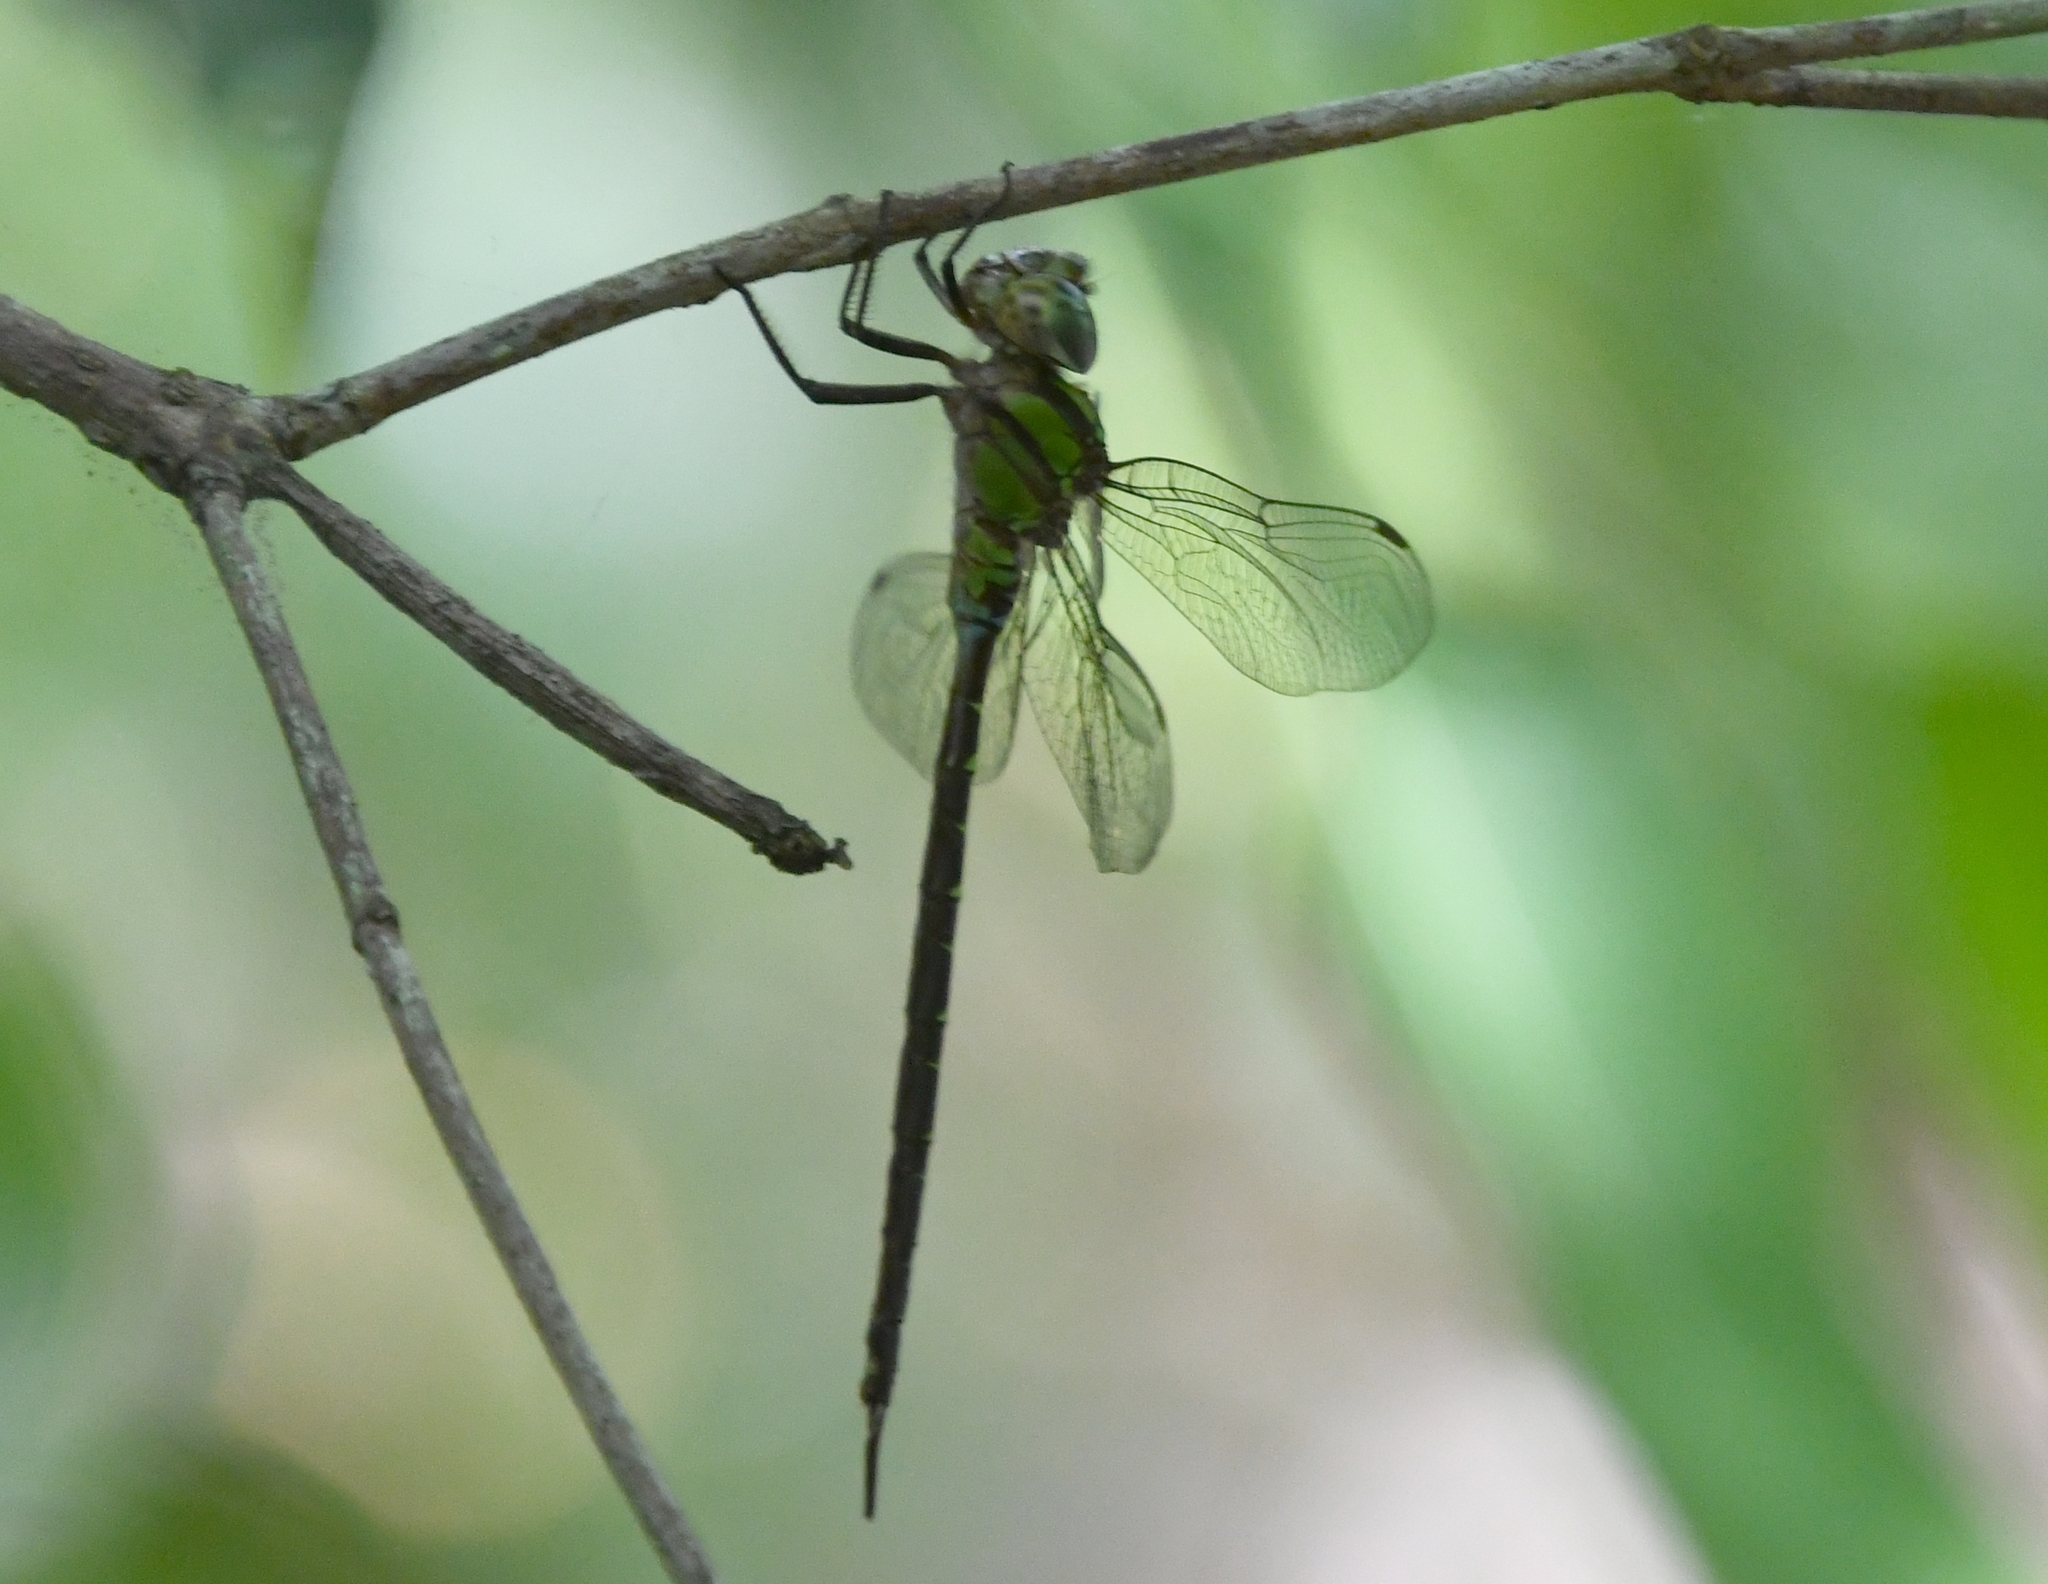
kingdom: Animalia
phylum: Arthropoda
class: Insecta
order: Odonata
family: Aeshnidae
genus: Triacanthagyna
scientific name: Triacanthagyna trifida
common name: Phantom darner
